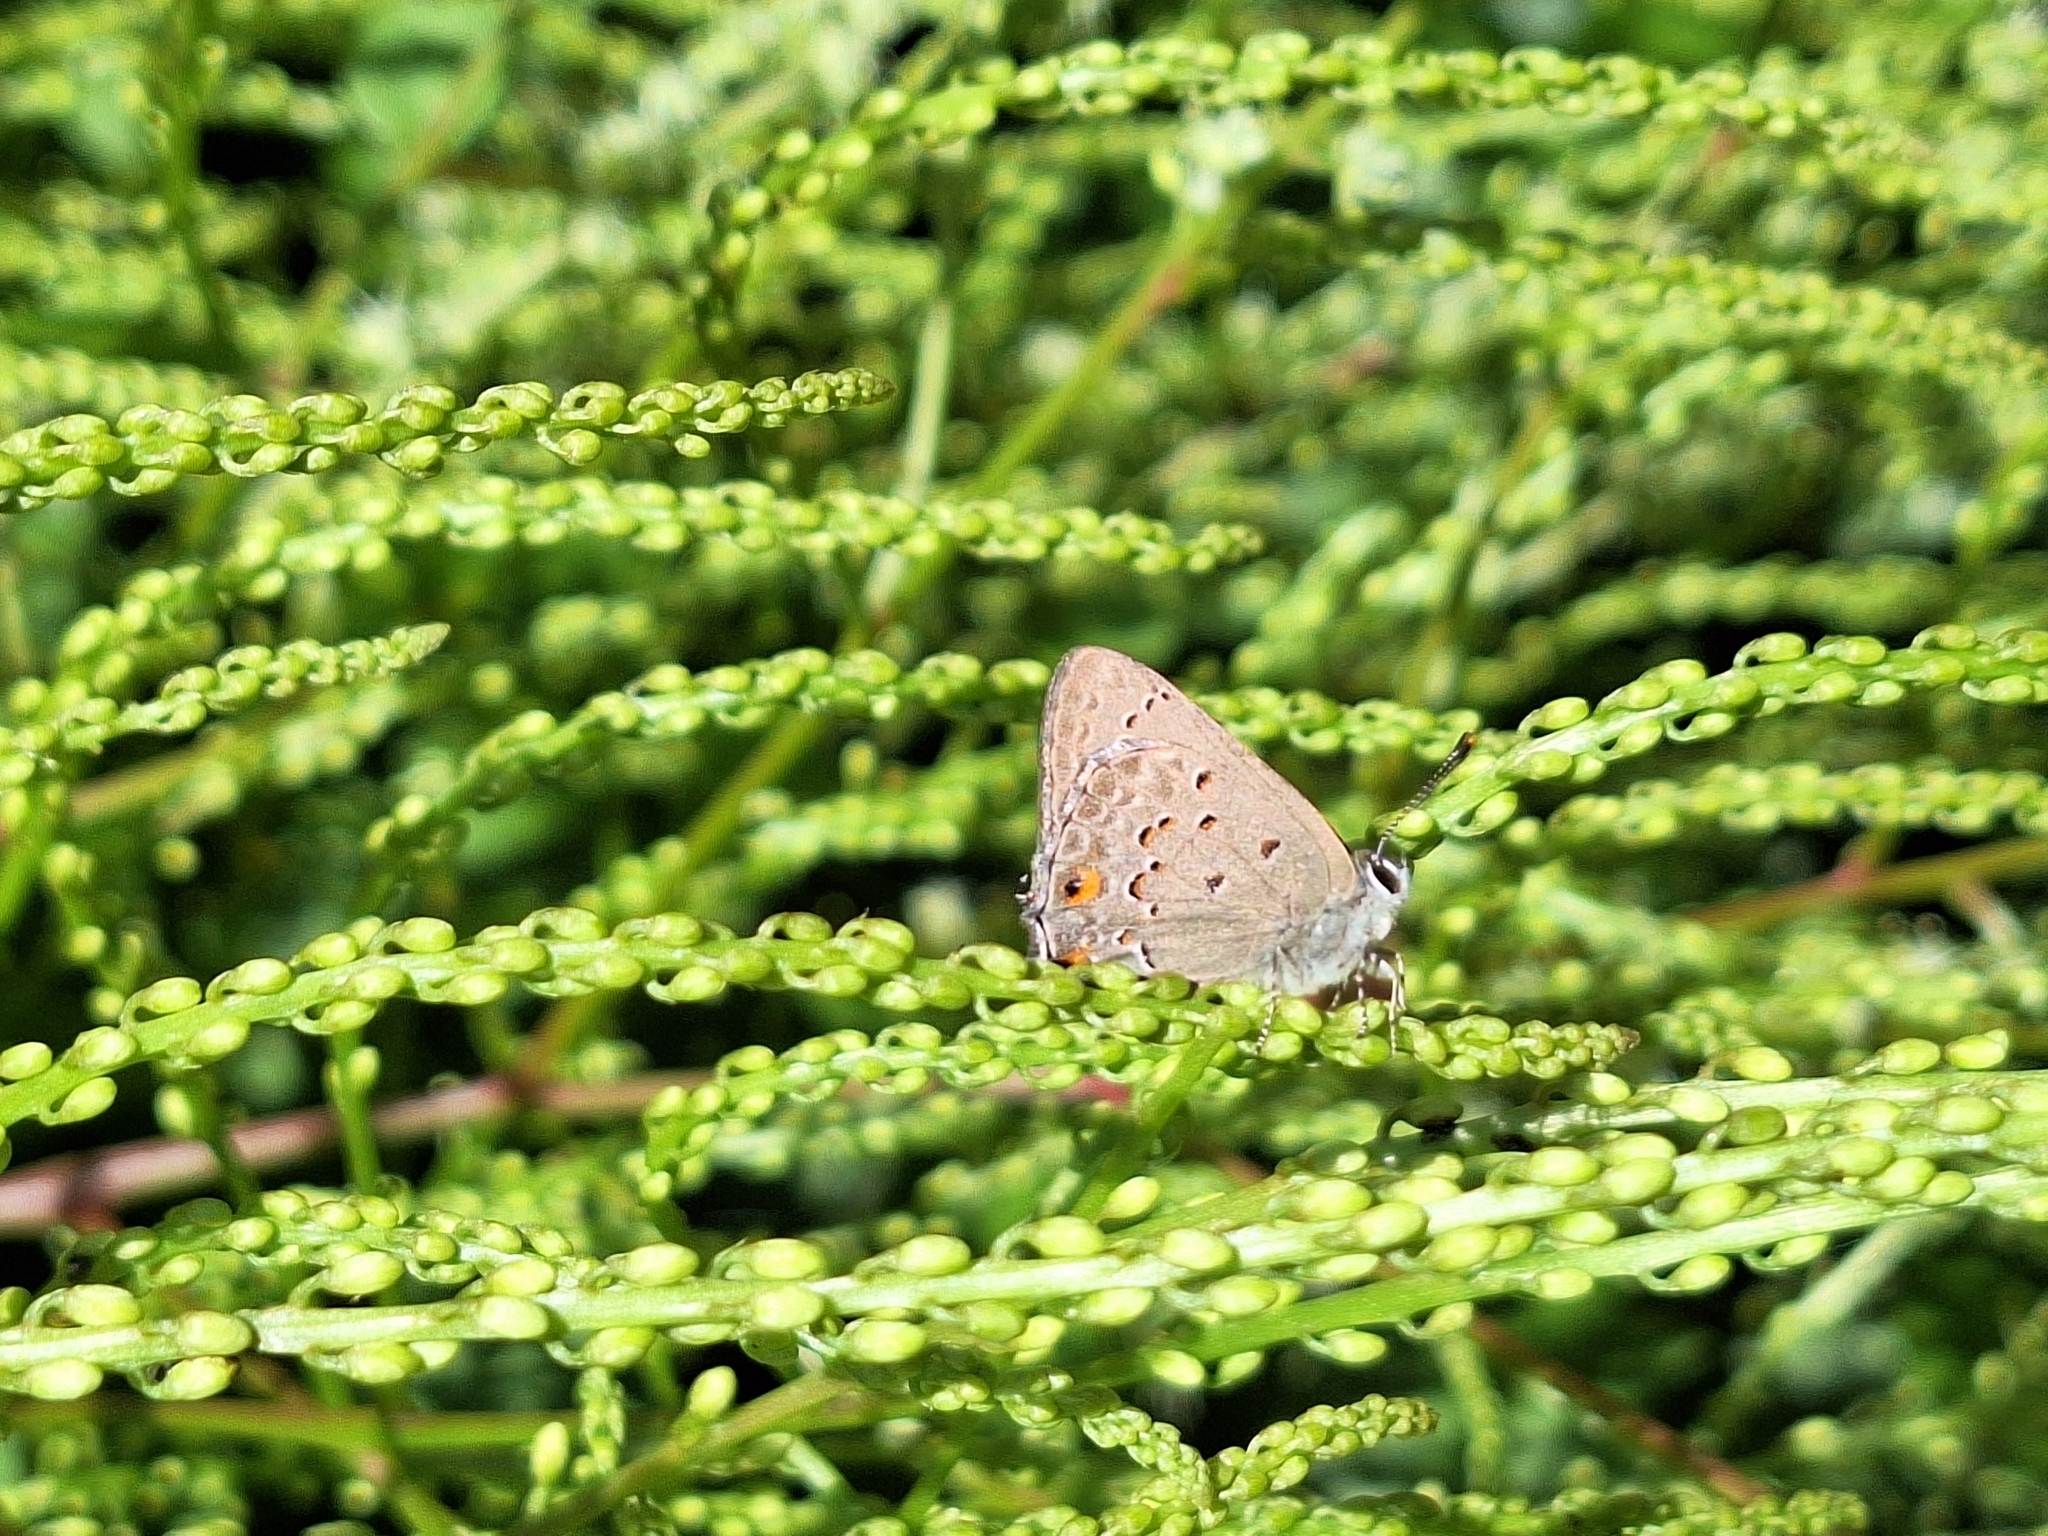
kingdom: Animalia
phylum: Arthropoda
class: Insecta
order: Lepidoptera
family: Lycaenidae
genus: Strymon
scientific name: Strymon eurytulus
